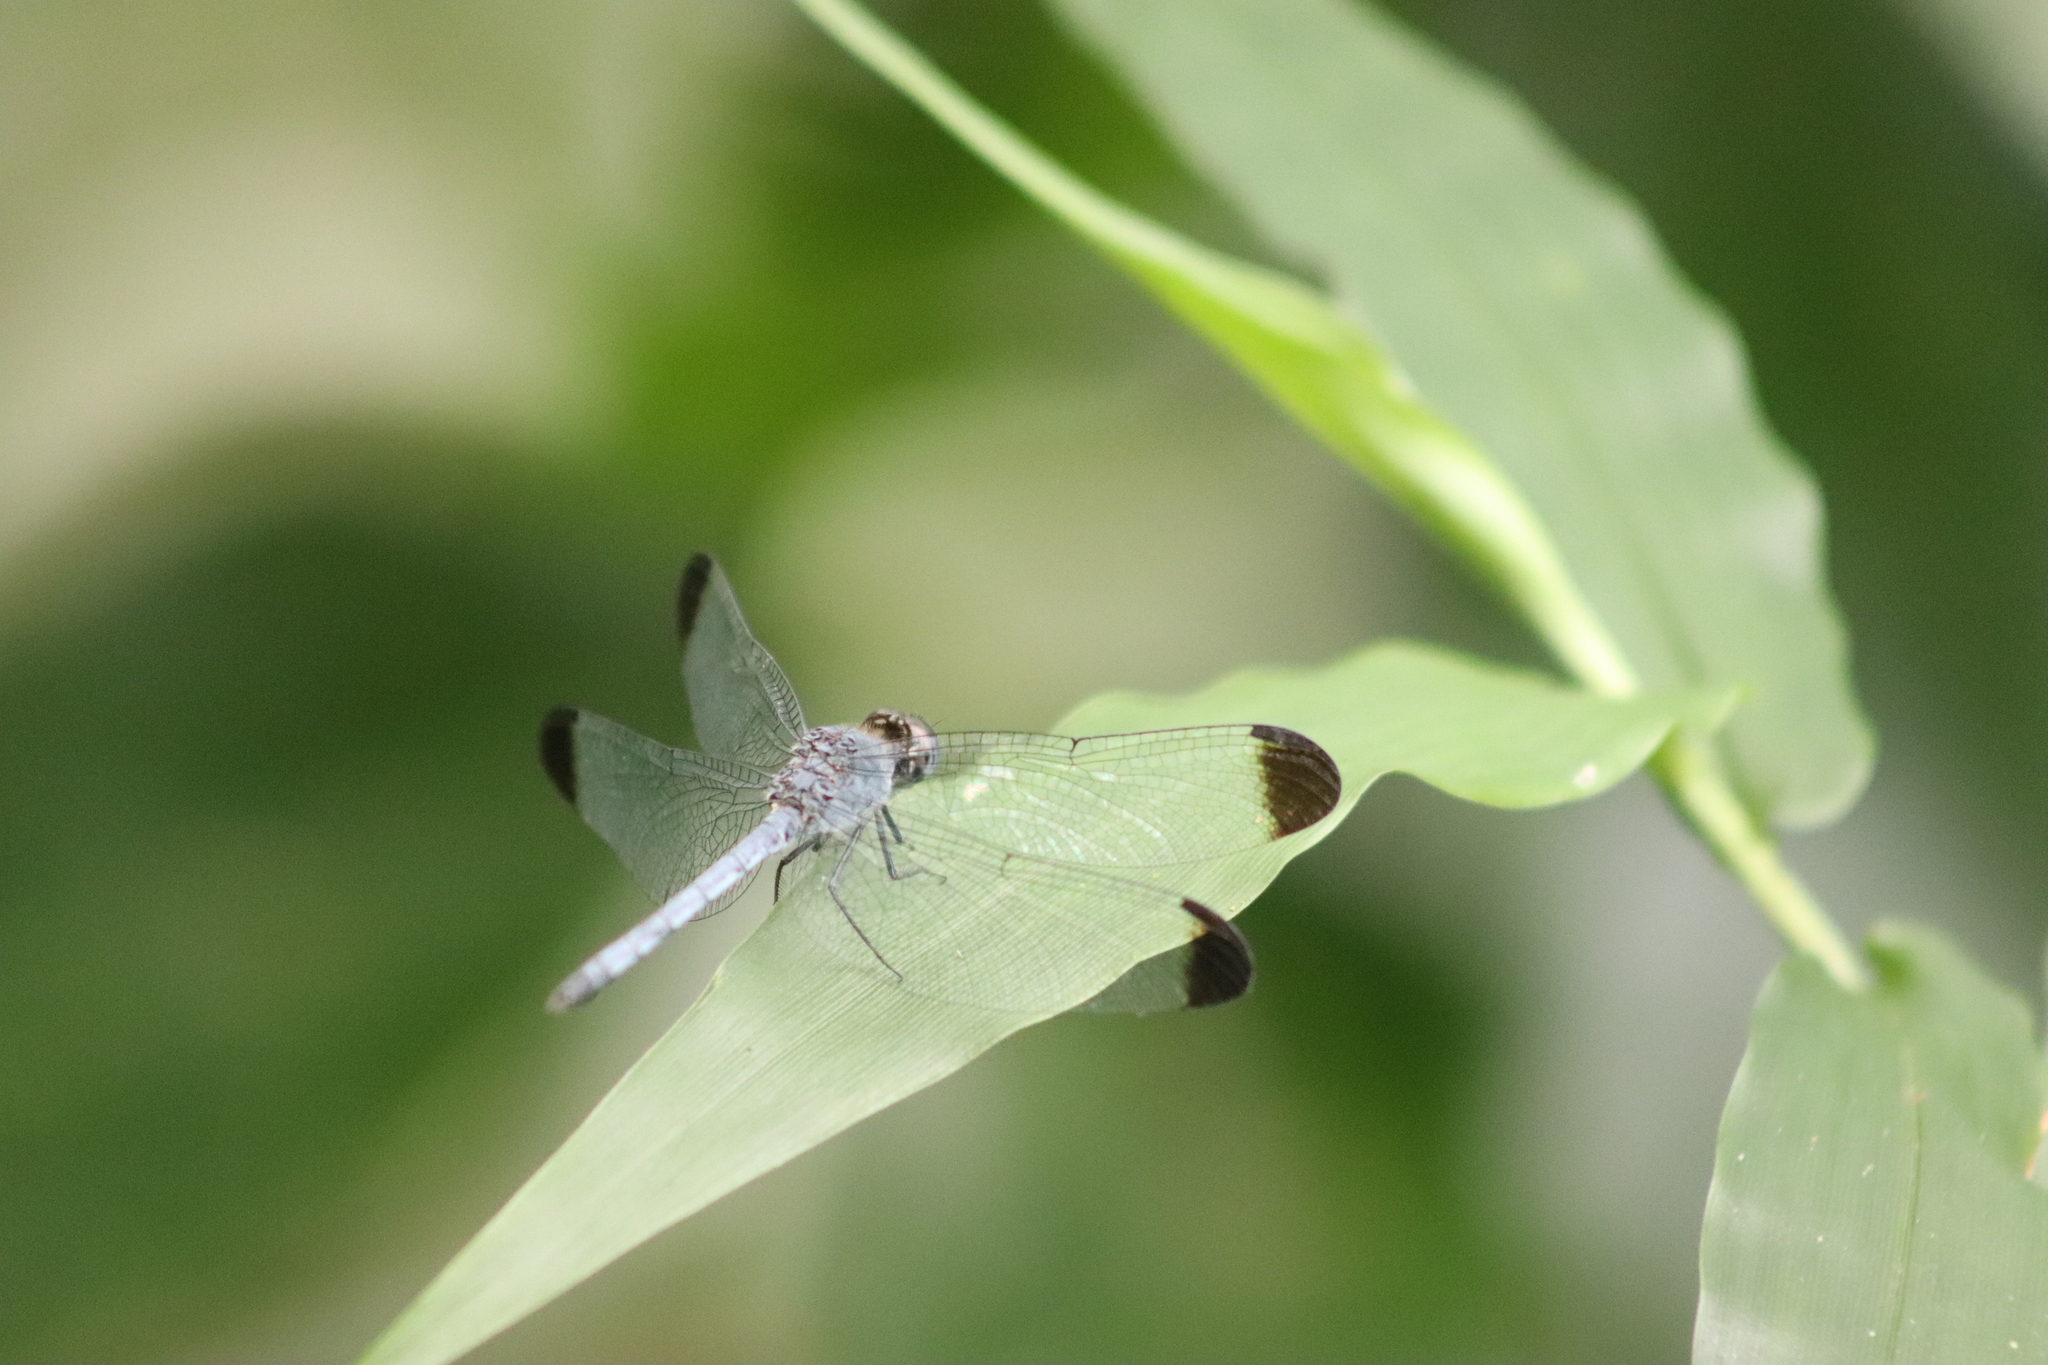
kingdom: Animalia
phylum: Arthropoda
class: Insecta
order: Odonata
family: Libellulidae
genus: Uracis
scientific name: Uracis imbuta
